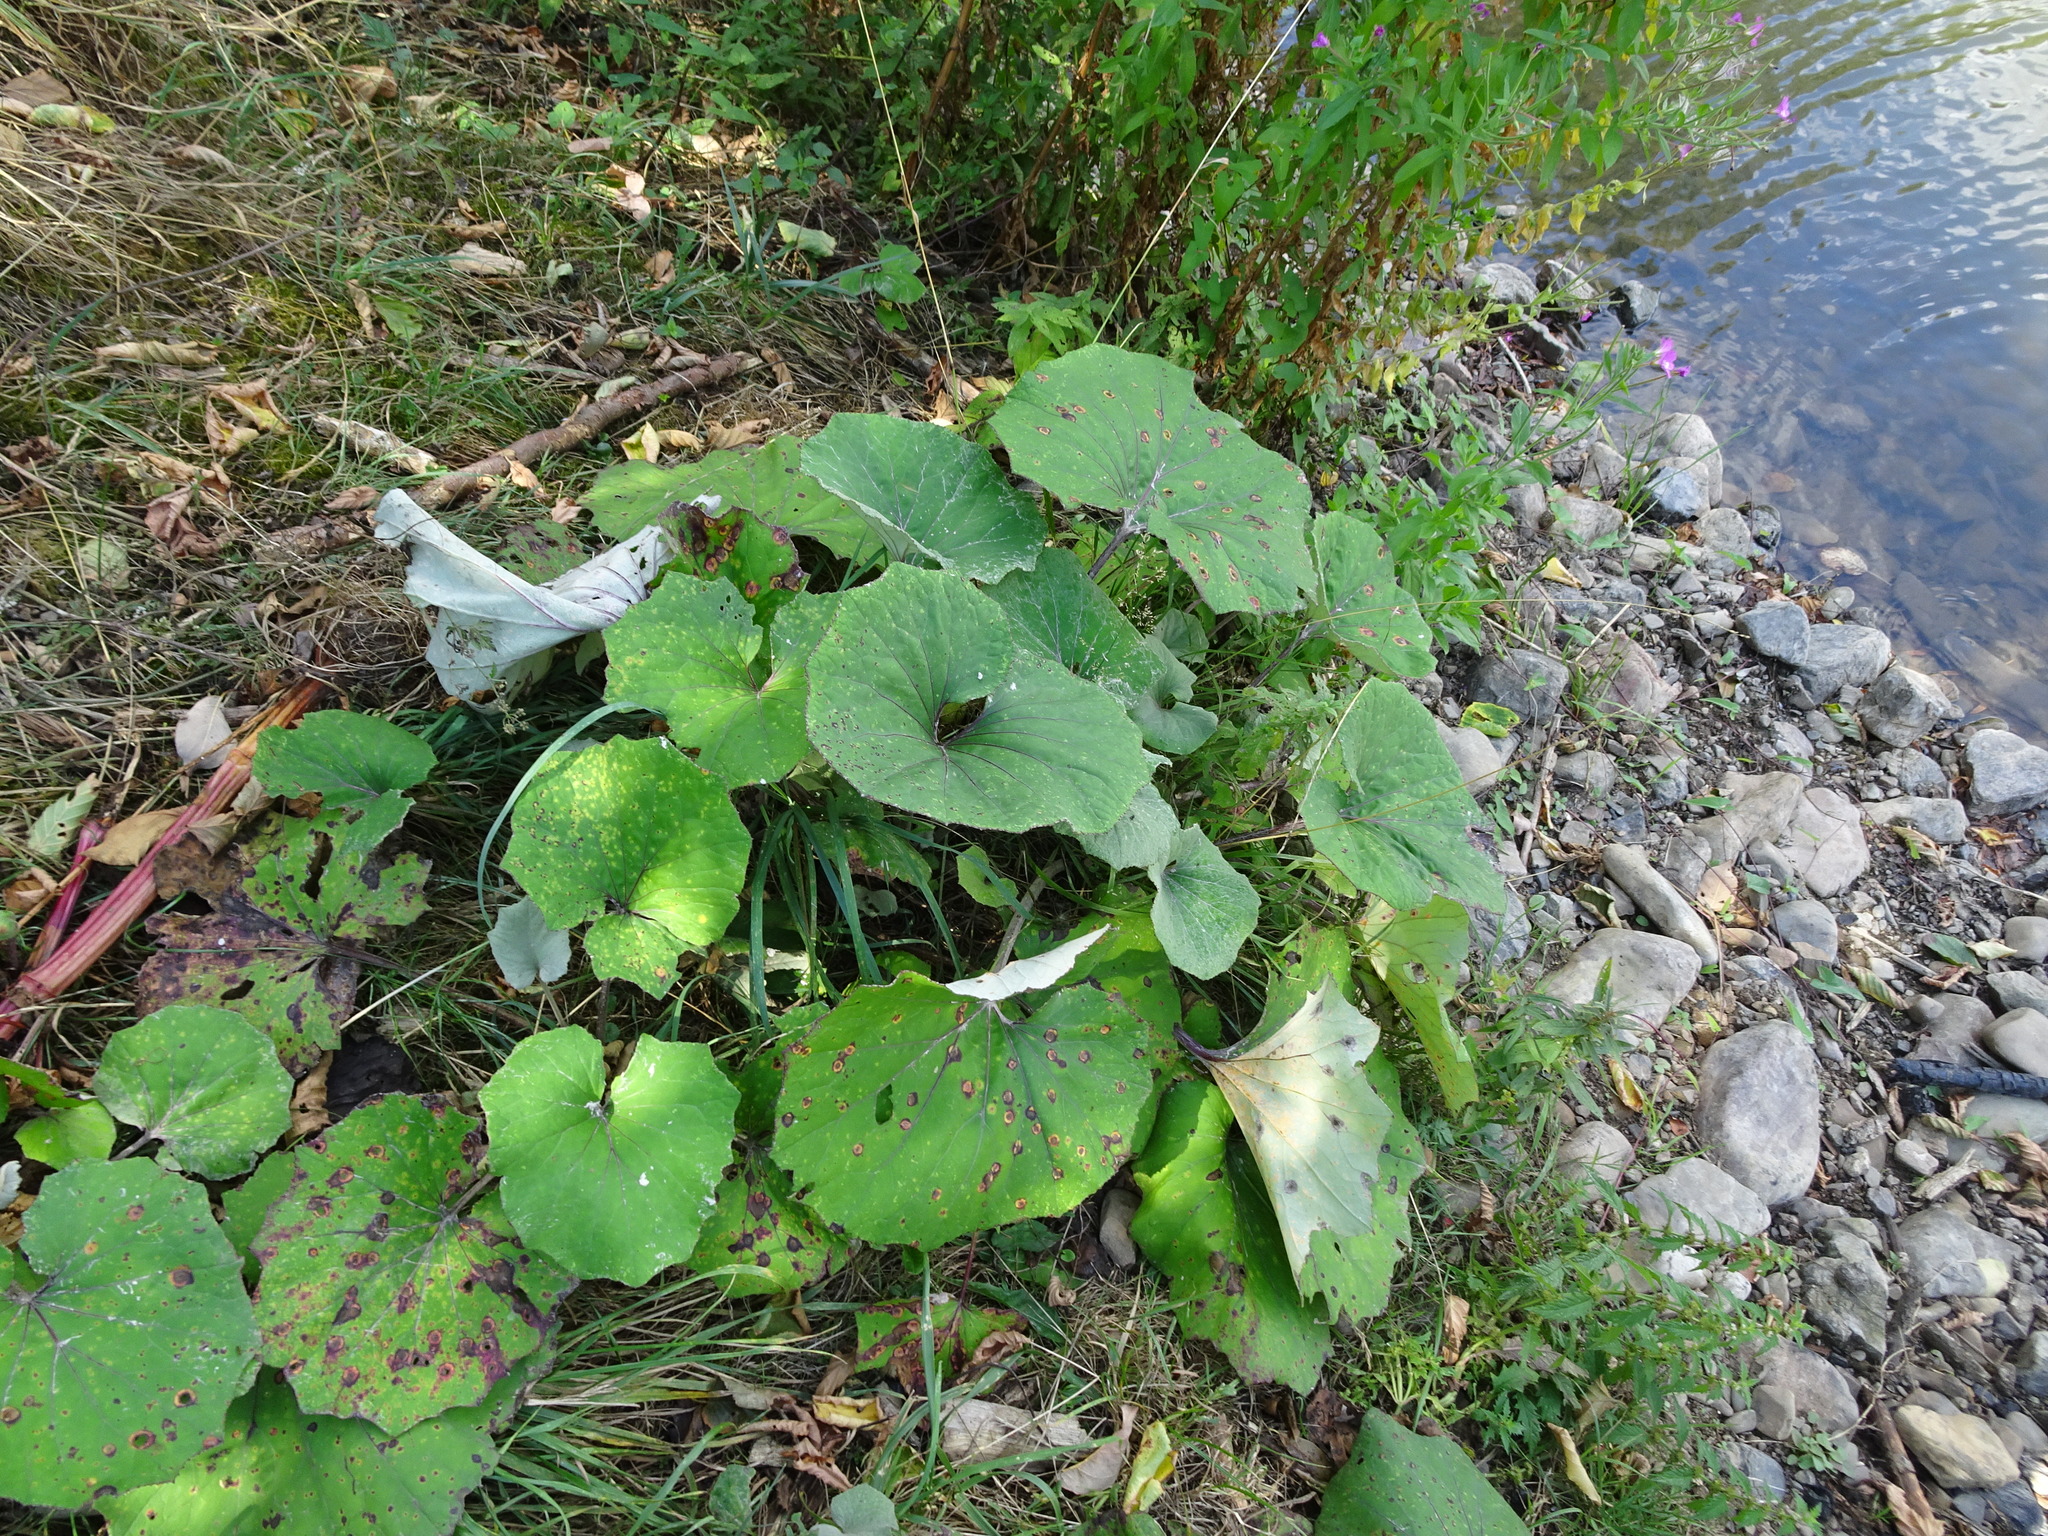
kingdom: Plantae
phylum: Tracheophyta
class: Magnoliopsida
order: Asterales
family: Asteraceae
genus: Tussilago
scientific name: Tussilago farfara
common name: Coltsfoot
